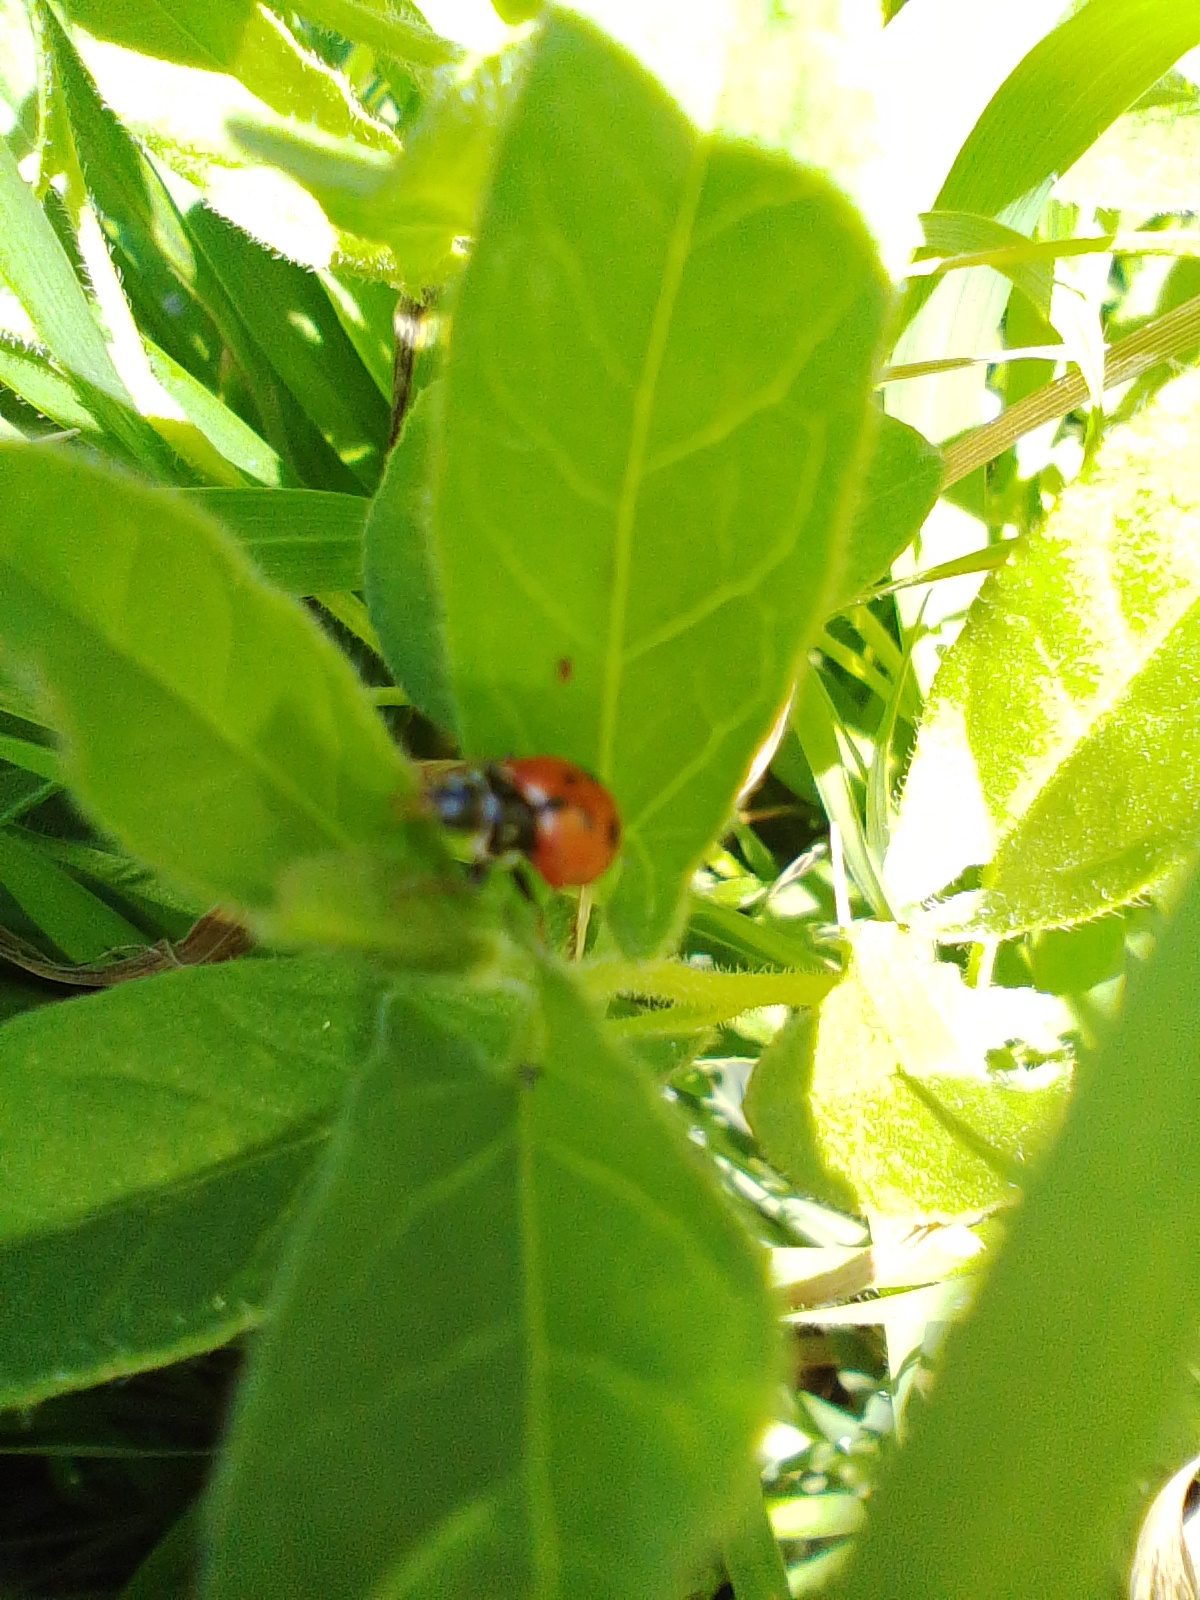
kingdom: Animalia
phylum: Arthropoda
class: Insecta
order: Coleoptera
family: Coccinellidae
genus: Hippodamia
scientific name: Hippodamia variegata
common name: Ladybird beetle
